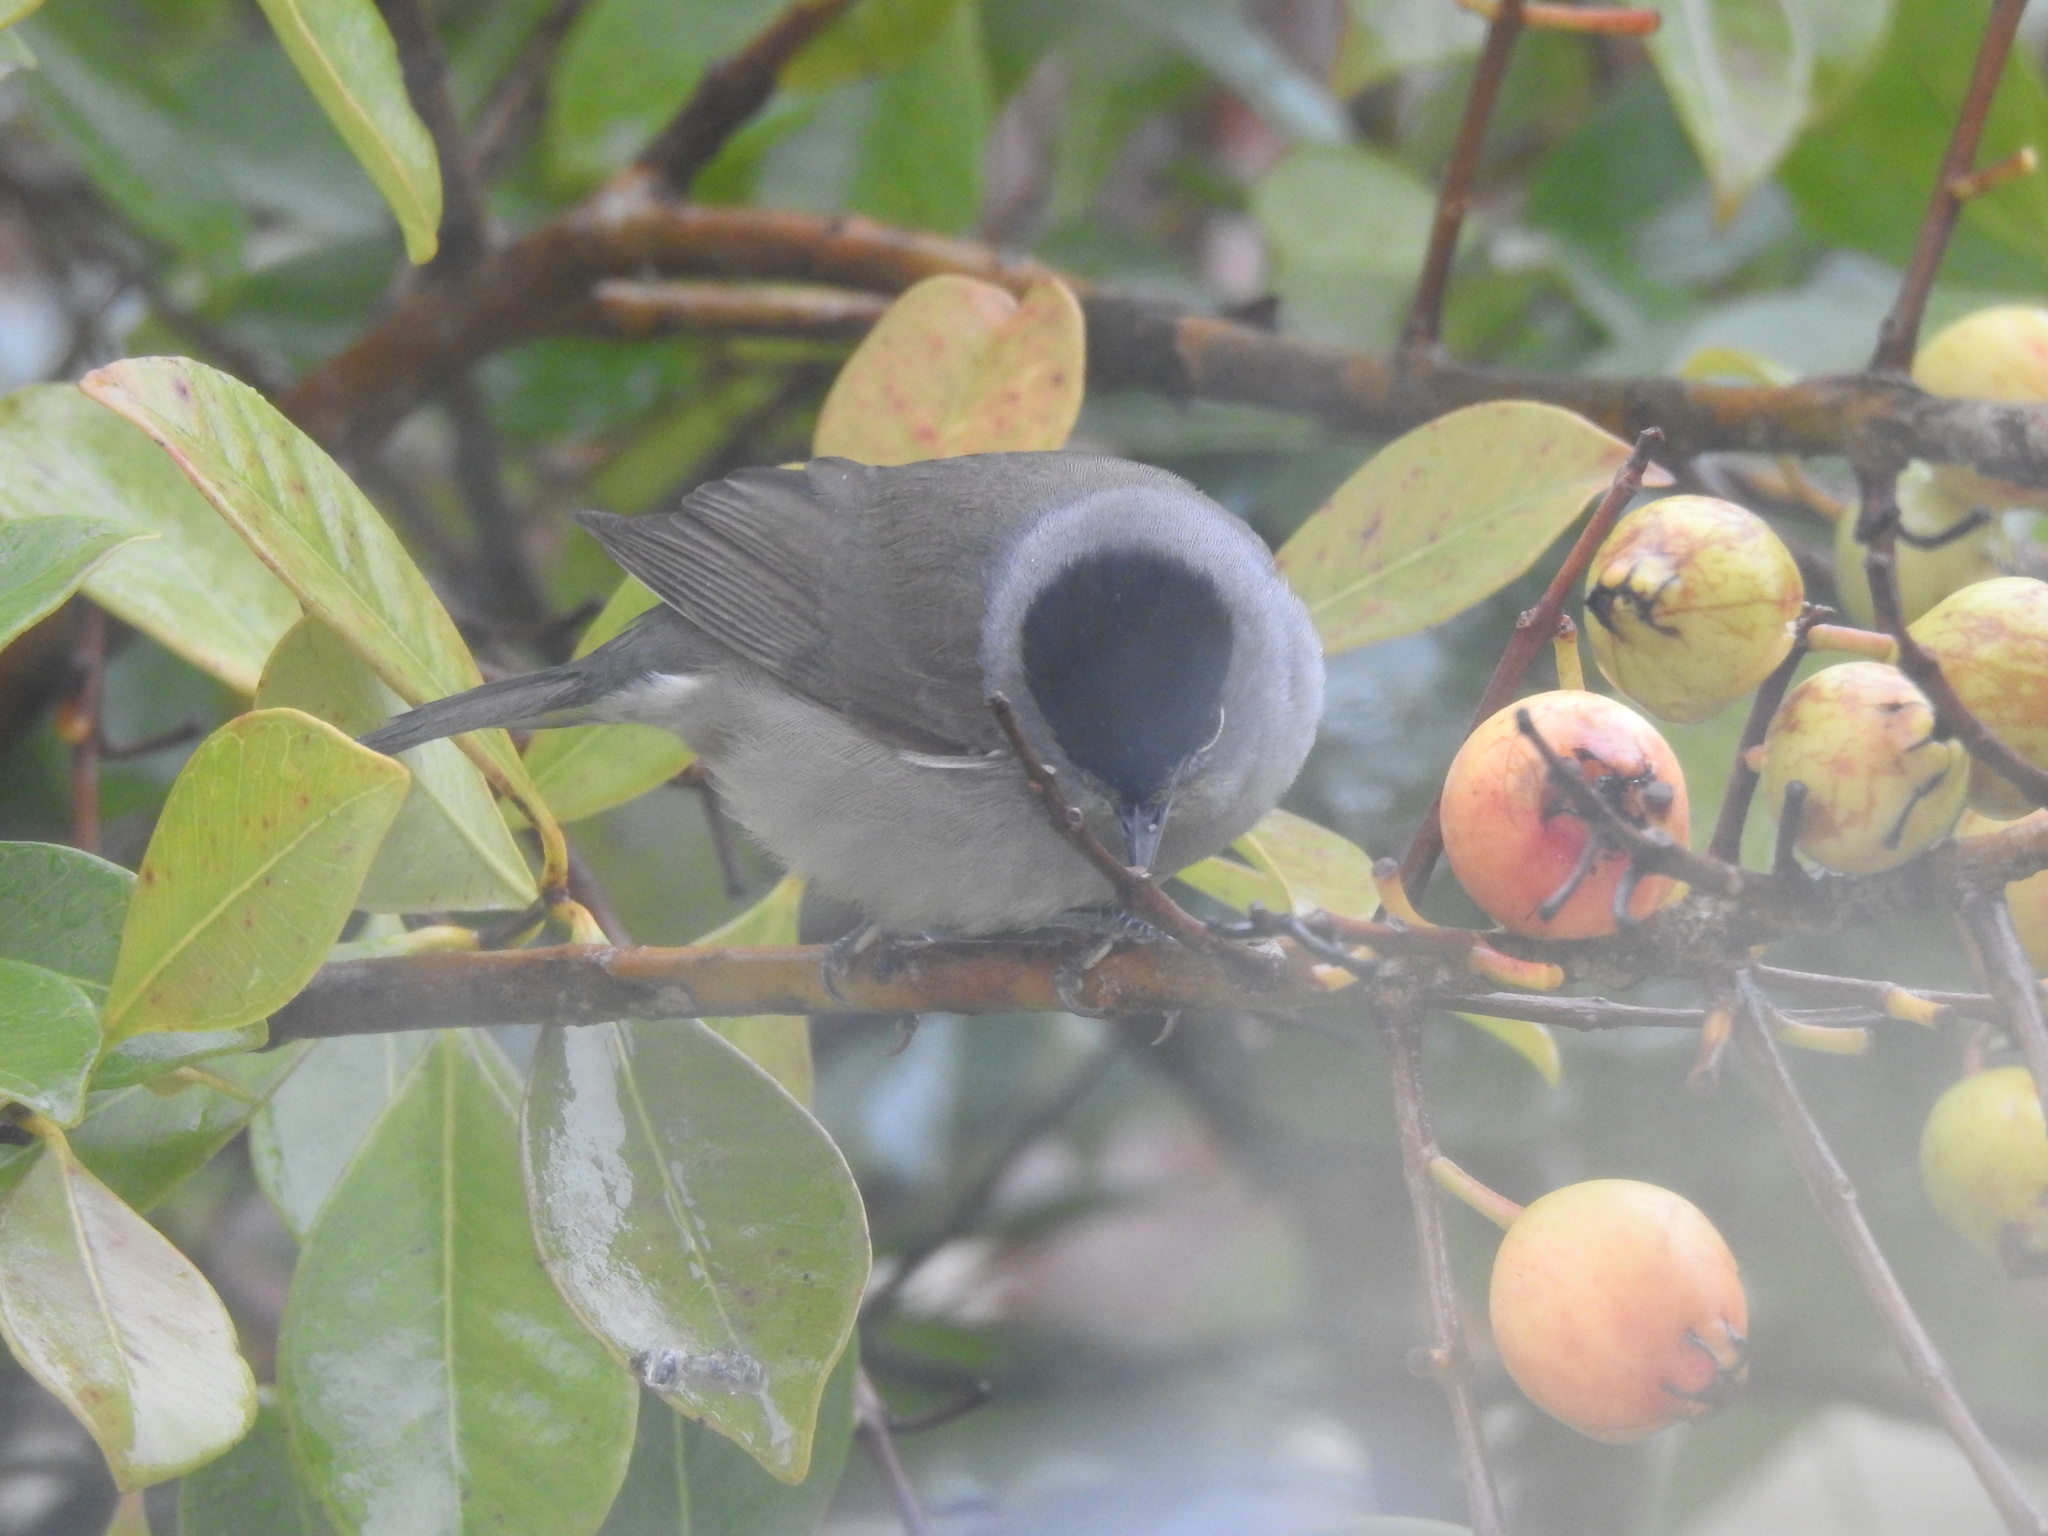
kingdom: Animalia
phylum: Chordata
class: Aves
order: Passeriformes
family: Sylviidae
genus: Sylvia
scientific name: Sylvia atricapilla
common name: Eurasian blackcap
